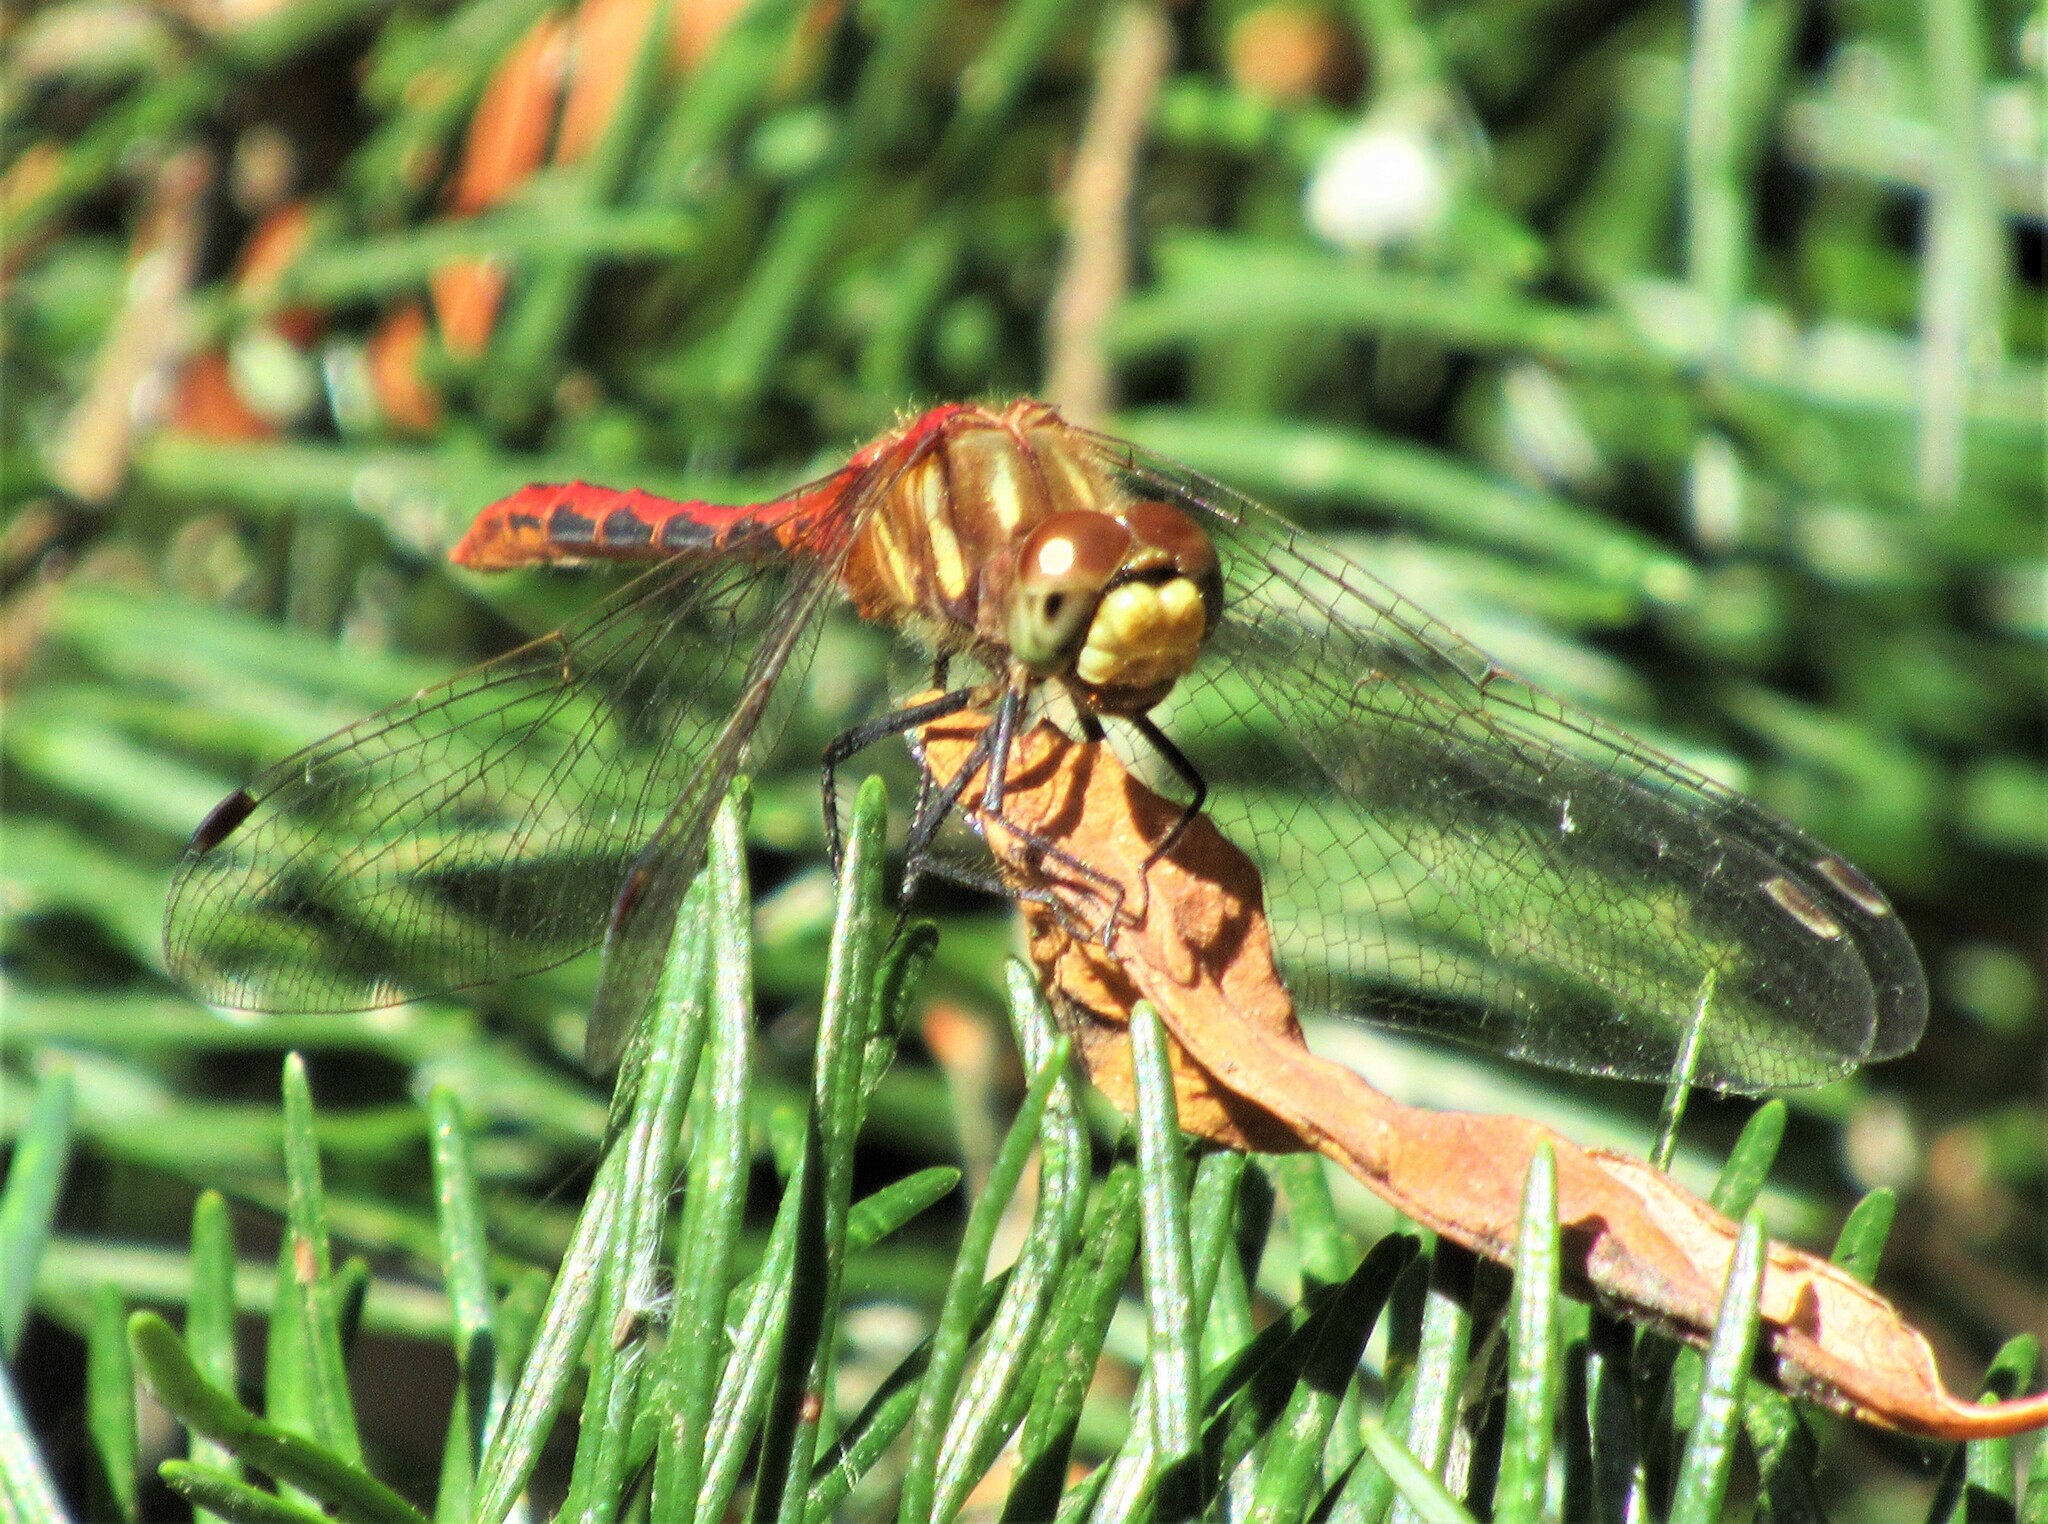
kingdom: Animalia
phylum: Arthropoda
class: Insecta
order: Odonata
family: Libellulidae
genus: Sympetrum
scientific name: Sympetrum pallipes
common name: Striped meadowhawk
